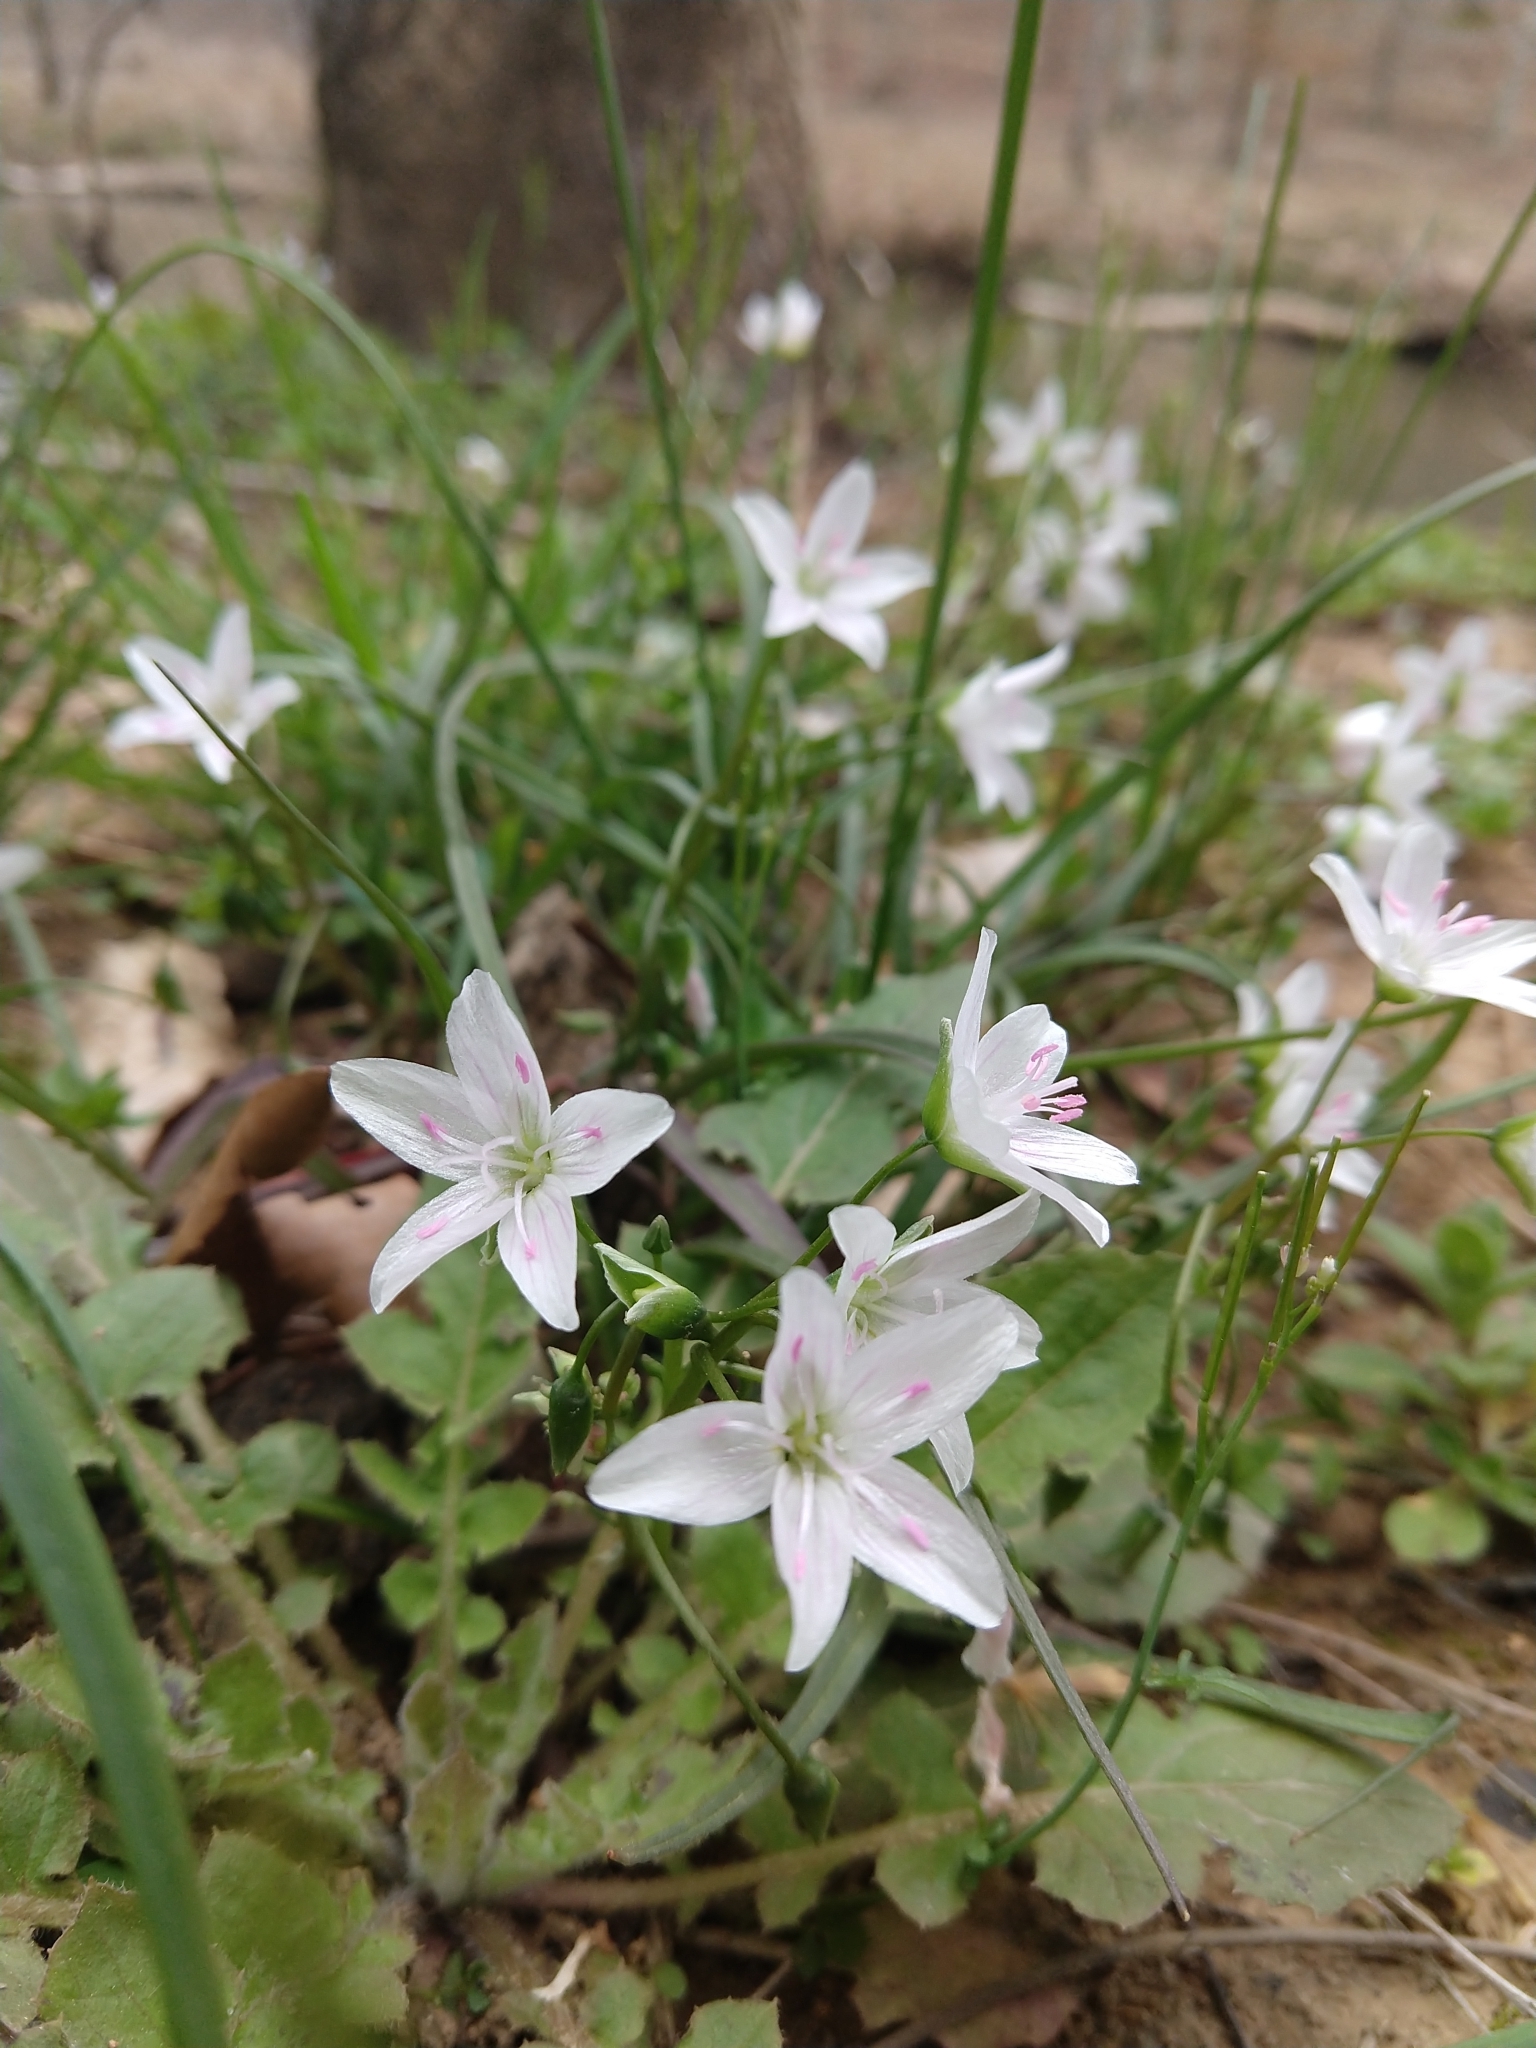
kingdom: Plantae
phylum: Tracheophyta
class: Magnoliopsida
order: Caryophyllales
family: Montiaceae
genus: Claytonia
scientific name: Claytonia virginica
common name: Virginia springbeauty
